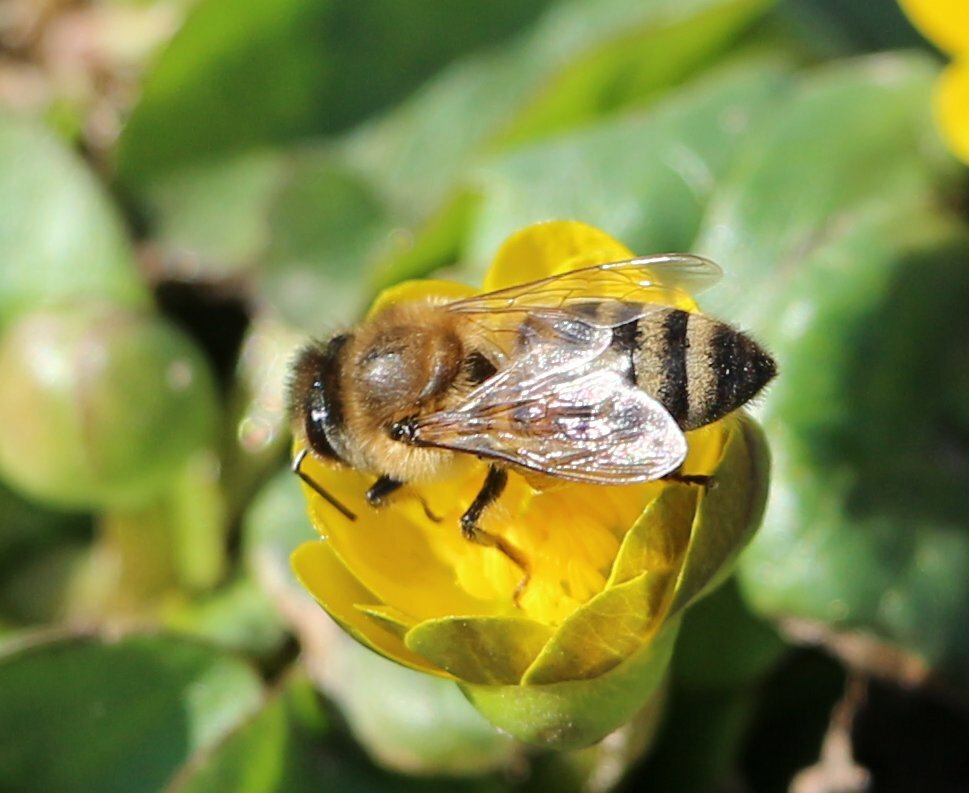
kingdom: Animalia
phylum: Arthropoda
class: Insecta
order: Hymenoptera
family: Apidae
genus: Apis
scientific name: Apis mellifera
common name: Honey bee
